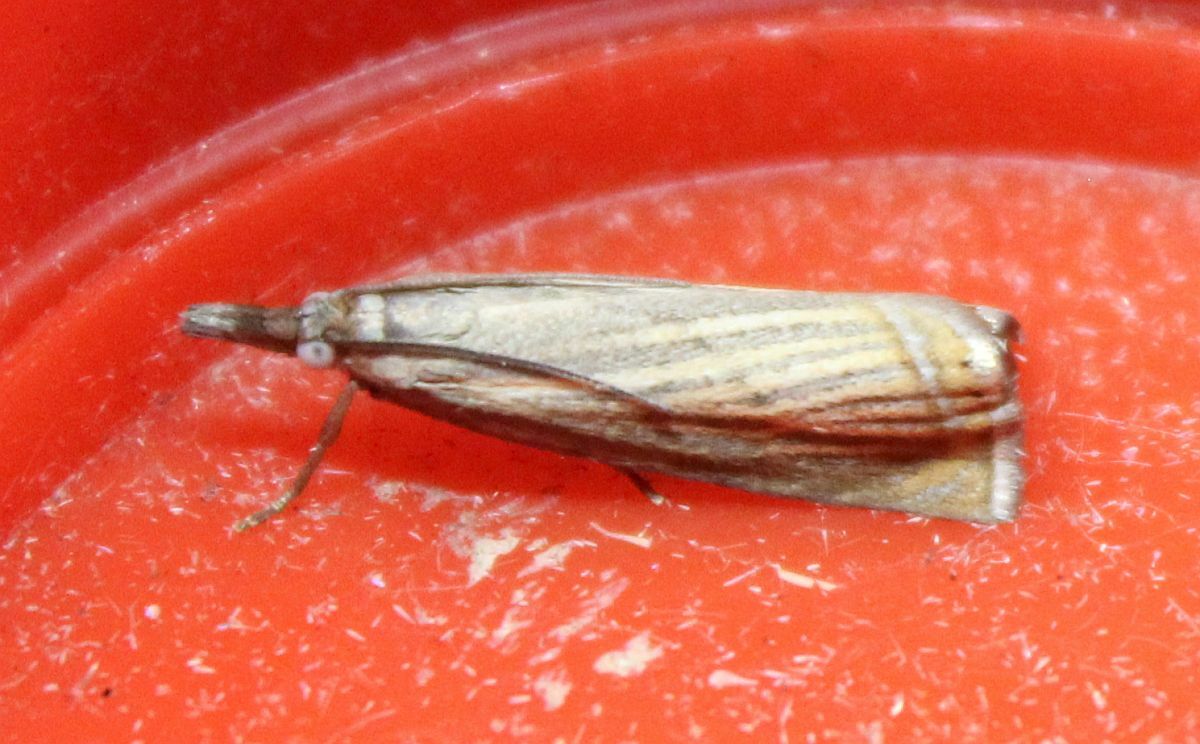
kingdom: Animalia
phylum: Arthropoda
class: Insecta
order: Lepidoptera
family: Crambidae
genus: Chrysoteuchia
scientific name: Chrysoteuchia culmella
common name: Garden grass-veneer
